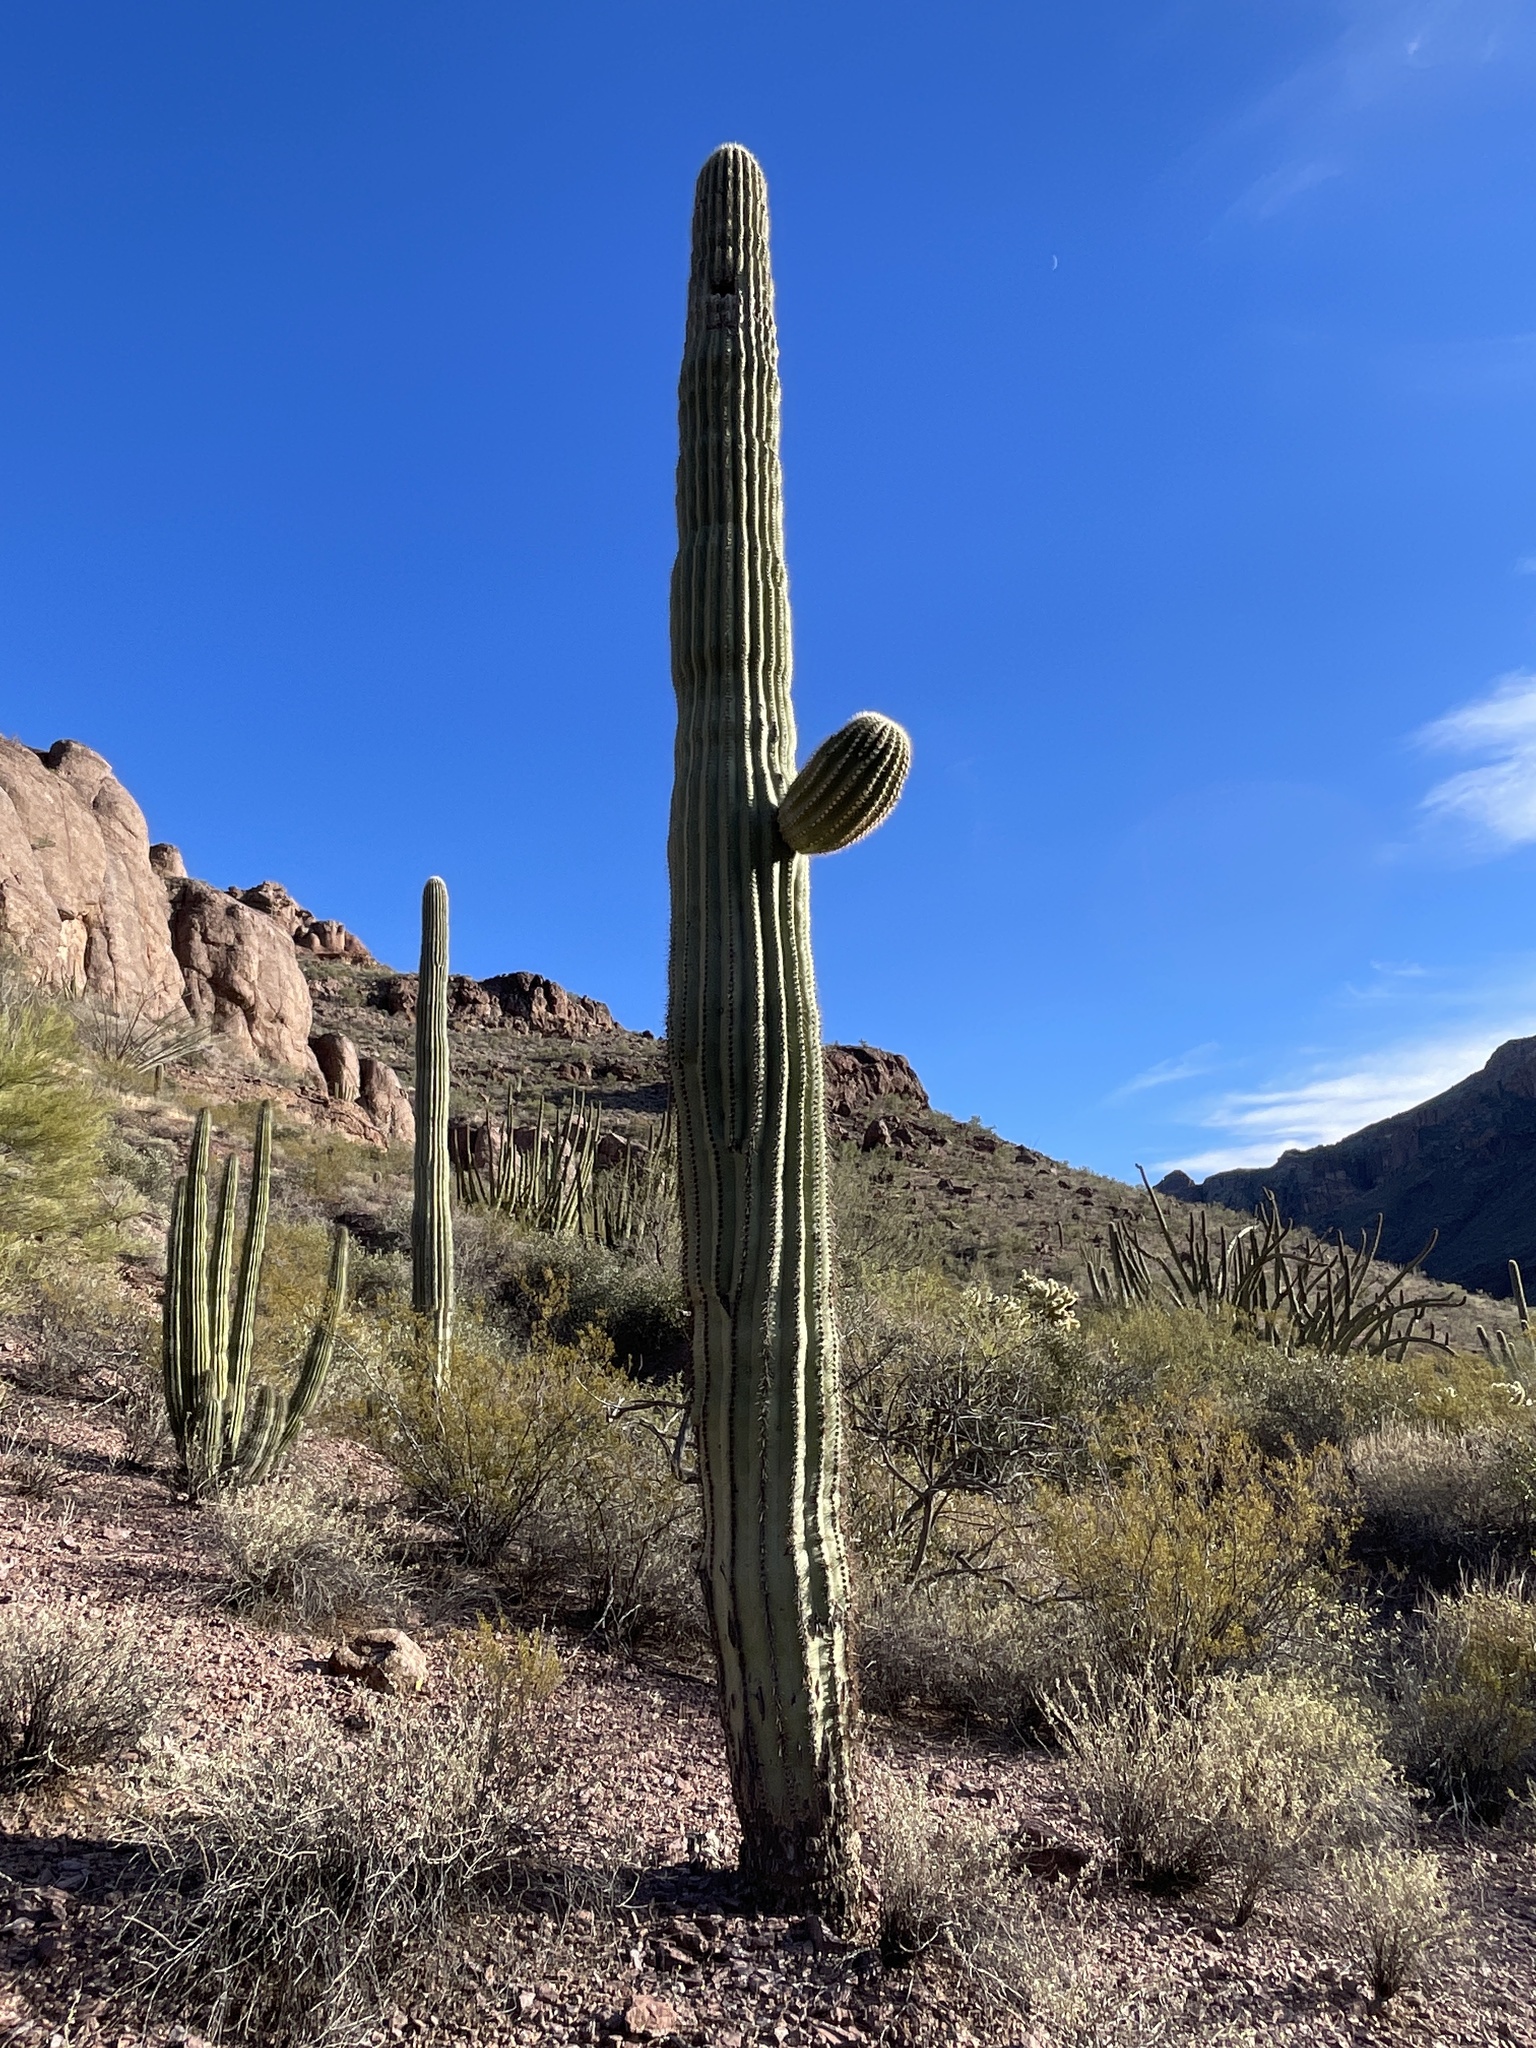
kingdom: Plantae
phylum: Tracheophyta
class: Magnoliopsida
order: Caryophyllales
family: Cactaceae
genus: Carnegiea
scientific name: Carnegiea gigantea
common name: Saguaro
